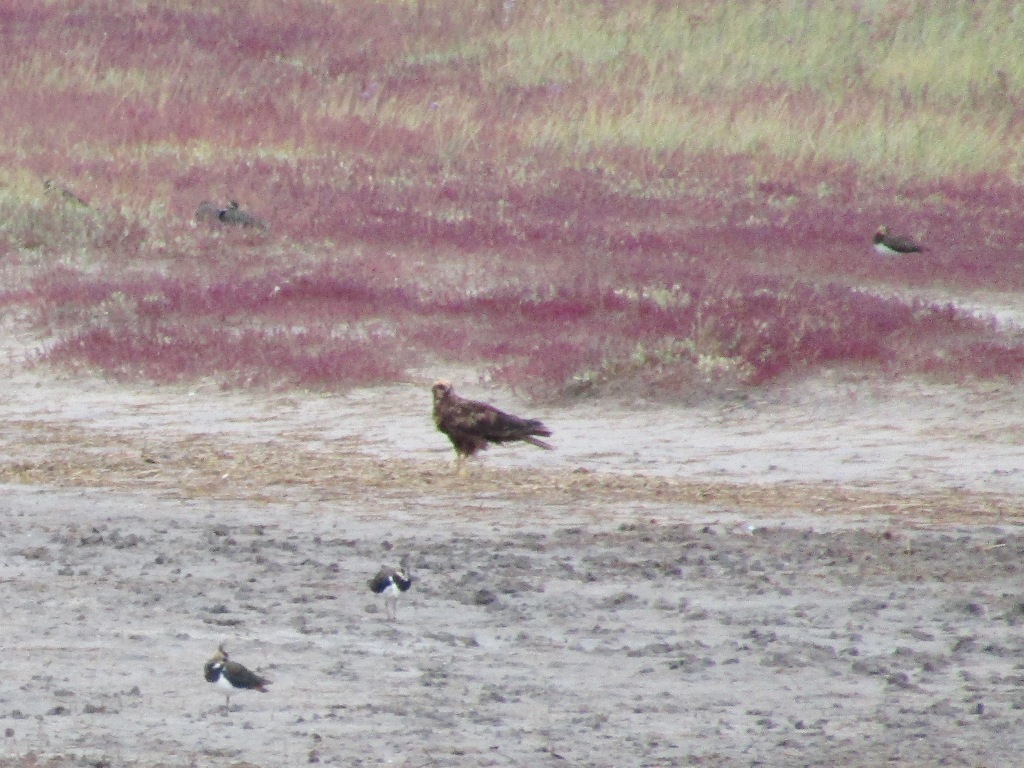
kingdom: Animalia
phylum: Chordata
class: Aves
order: Accipitriformes
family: Accipitridae
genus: Circus
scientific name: Circus aeruginosus
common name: Western marsh harrier
